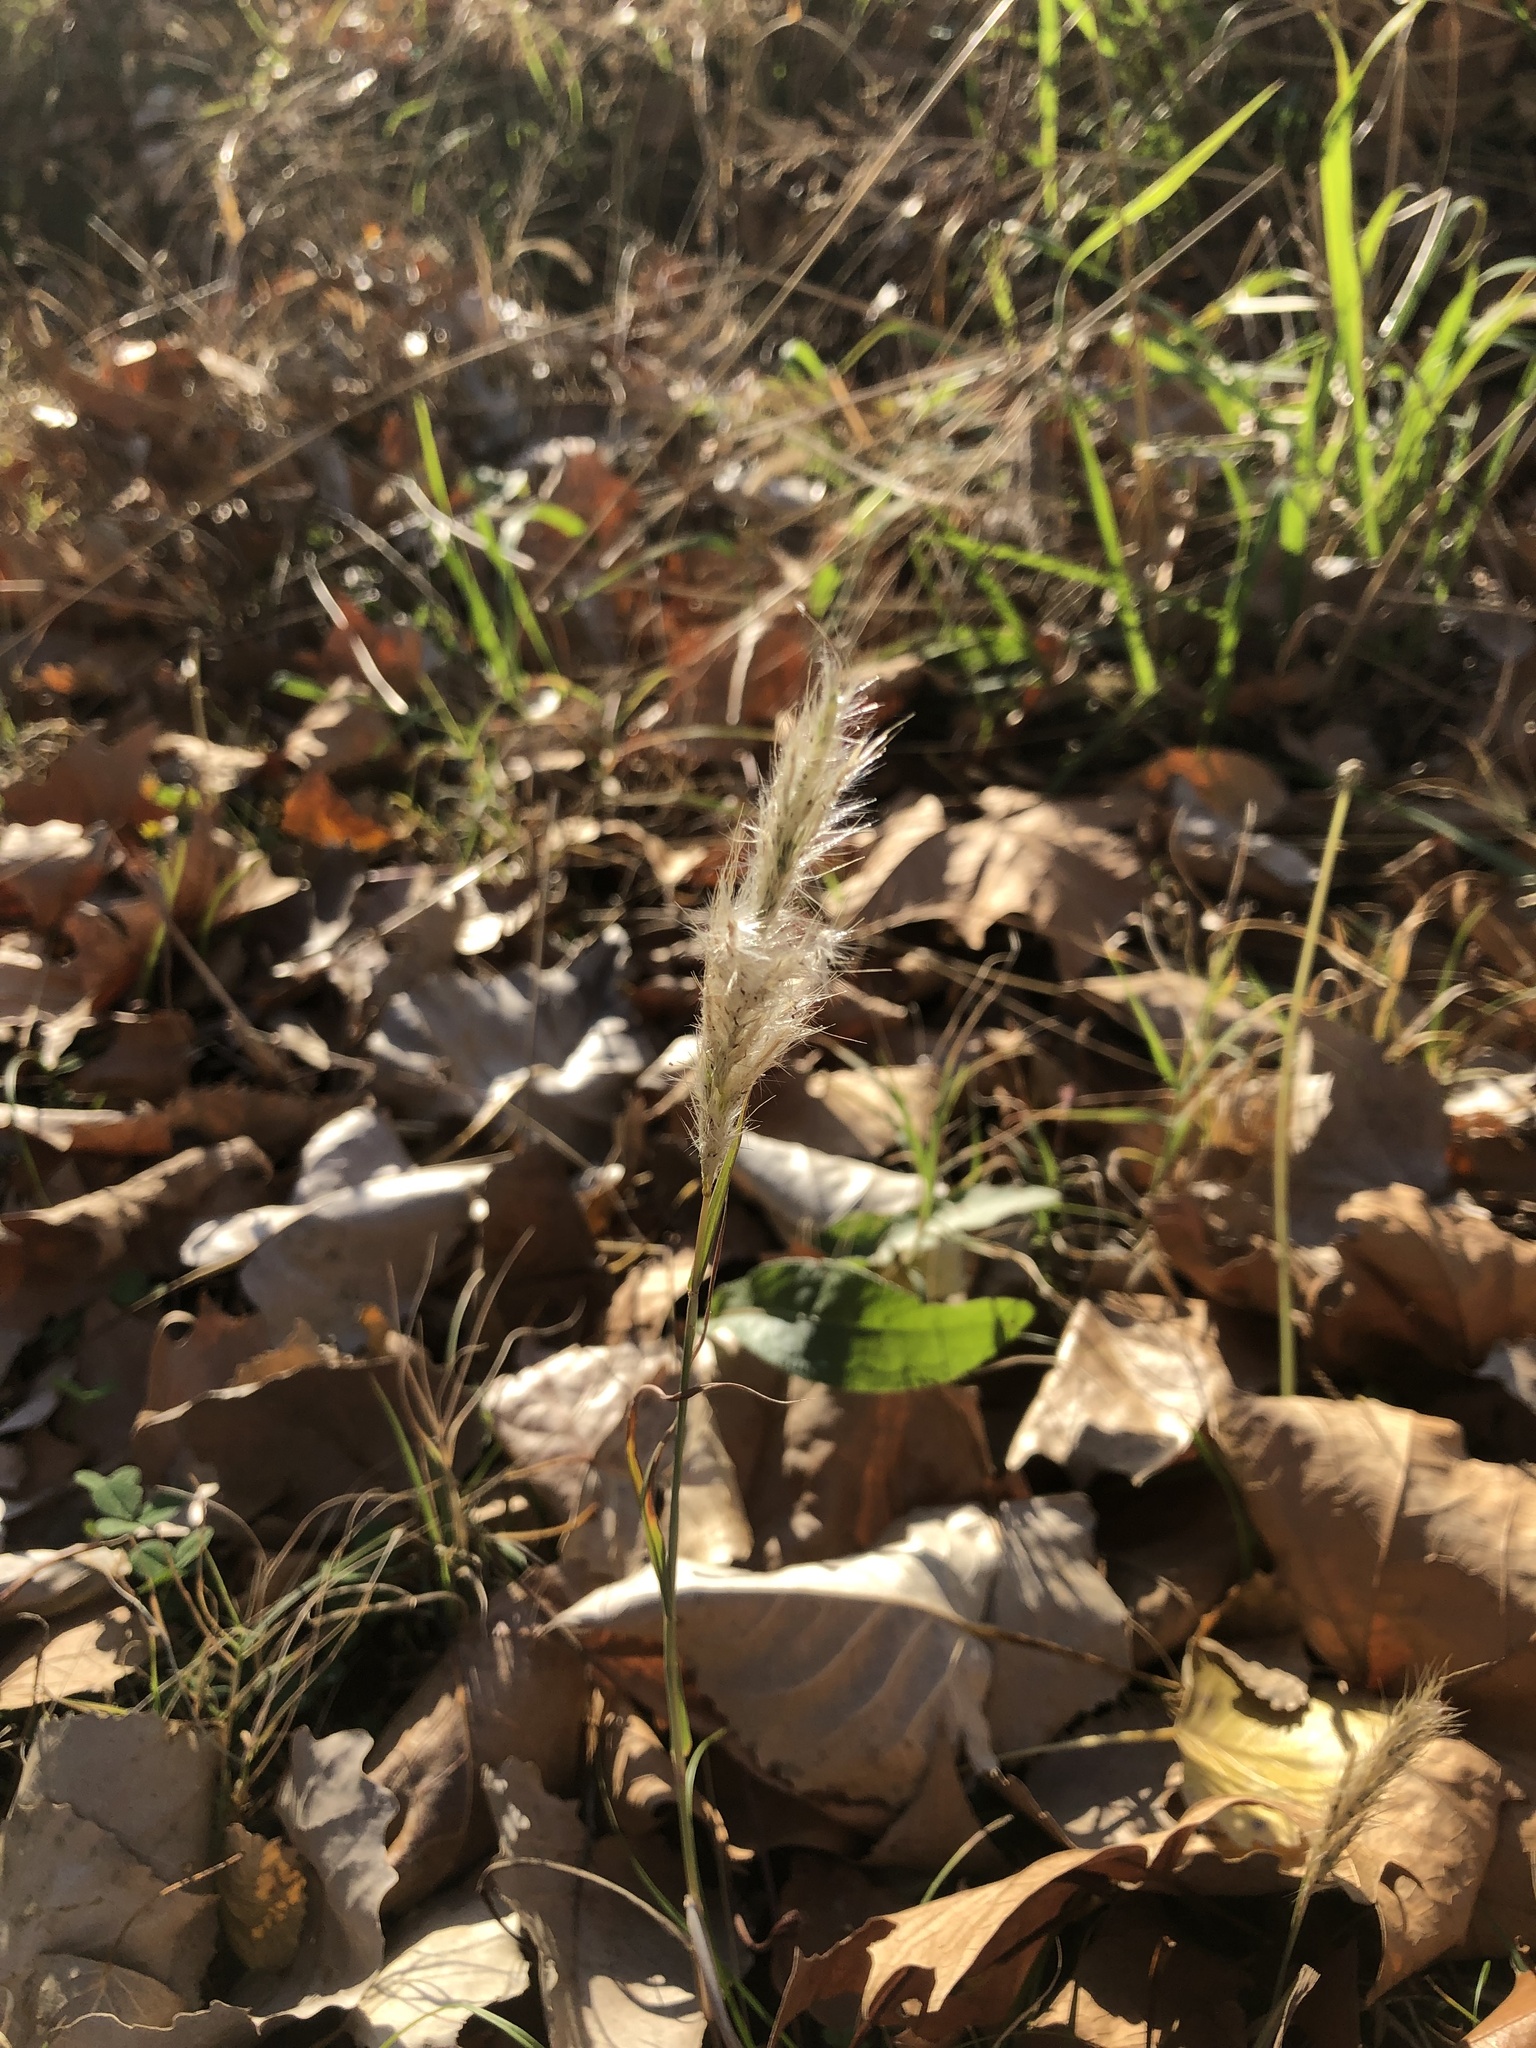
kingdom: Plantae
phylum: Tracheophyta
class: Liliopsida
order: Poales
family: Poaceae
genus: Bothriochloa
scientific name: Bothriochloa torreyana
